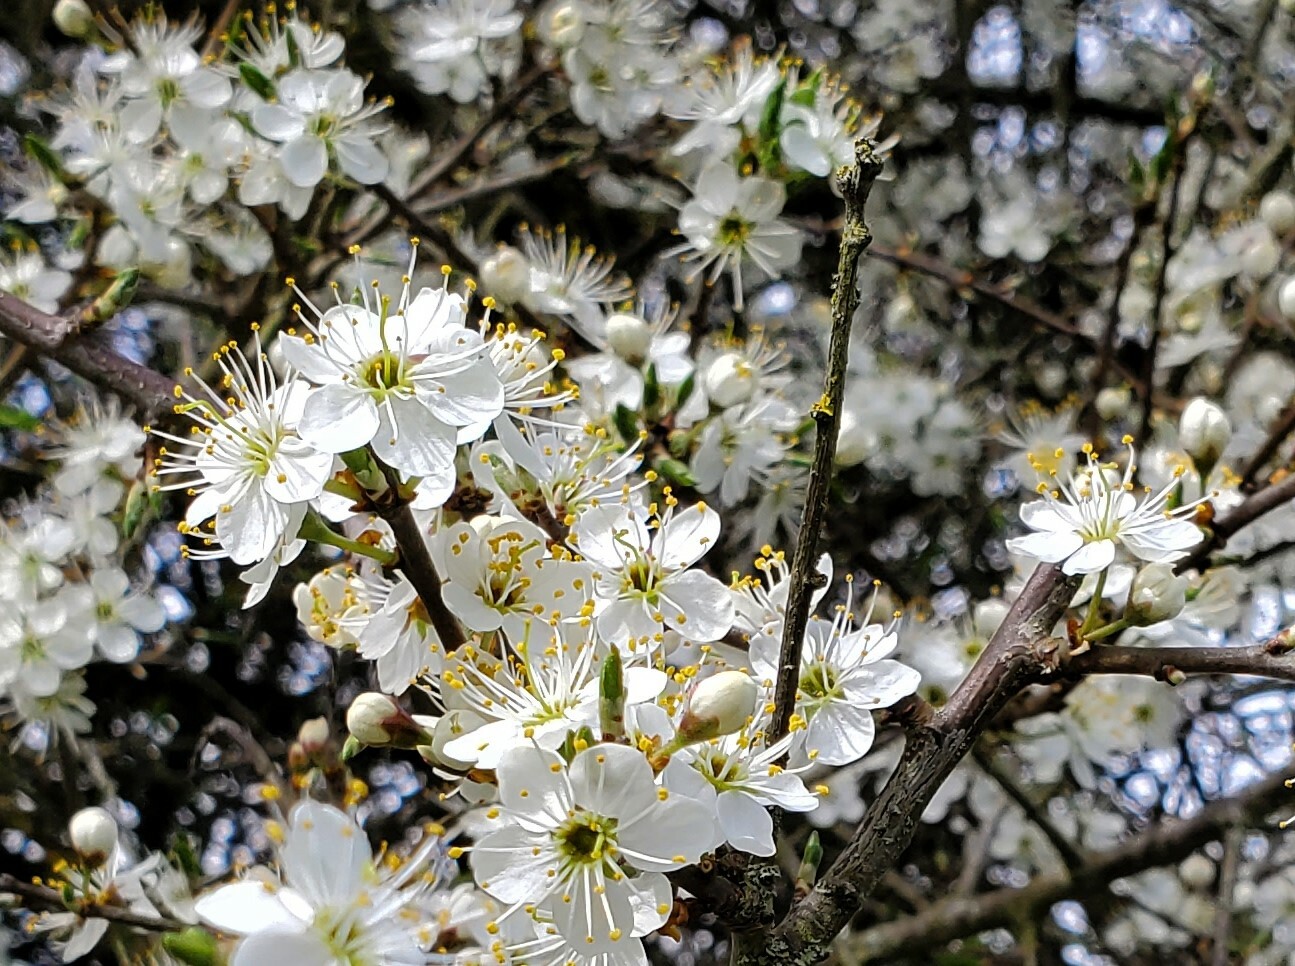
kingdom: Plantae
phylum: Tracheophyta
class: Magnoliopsida
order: Rosales
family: Rosaceae
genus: Prunus
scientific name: Prunus spinosa
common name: Blackthorn
